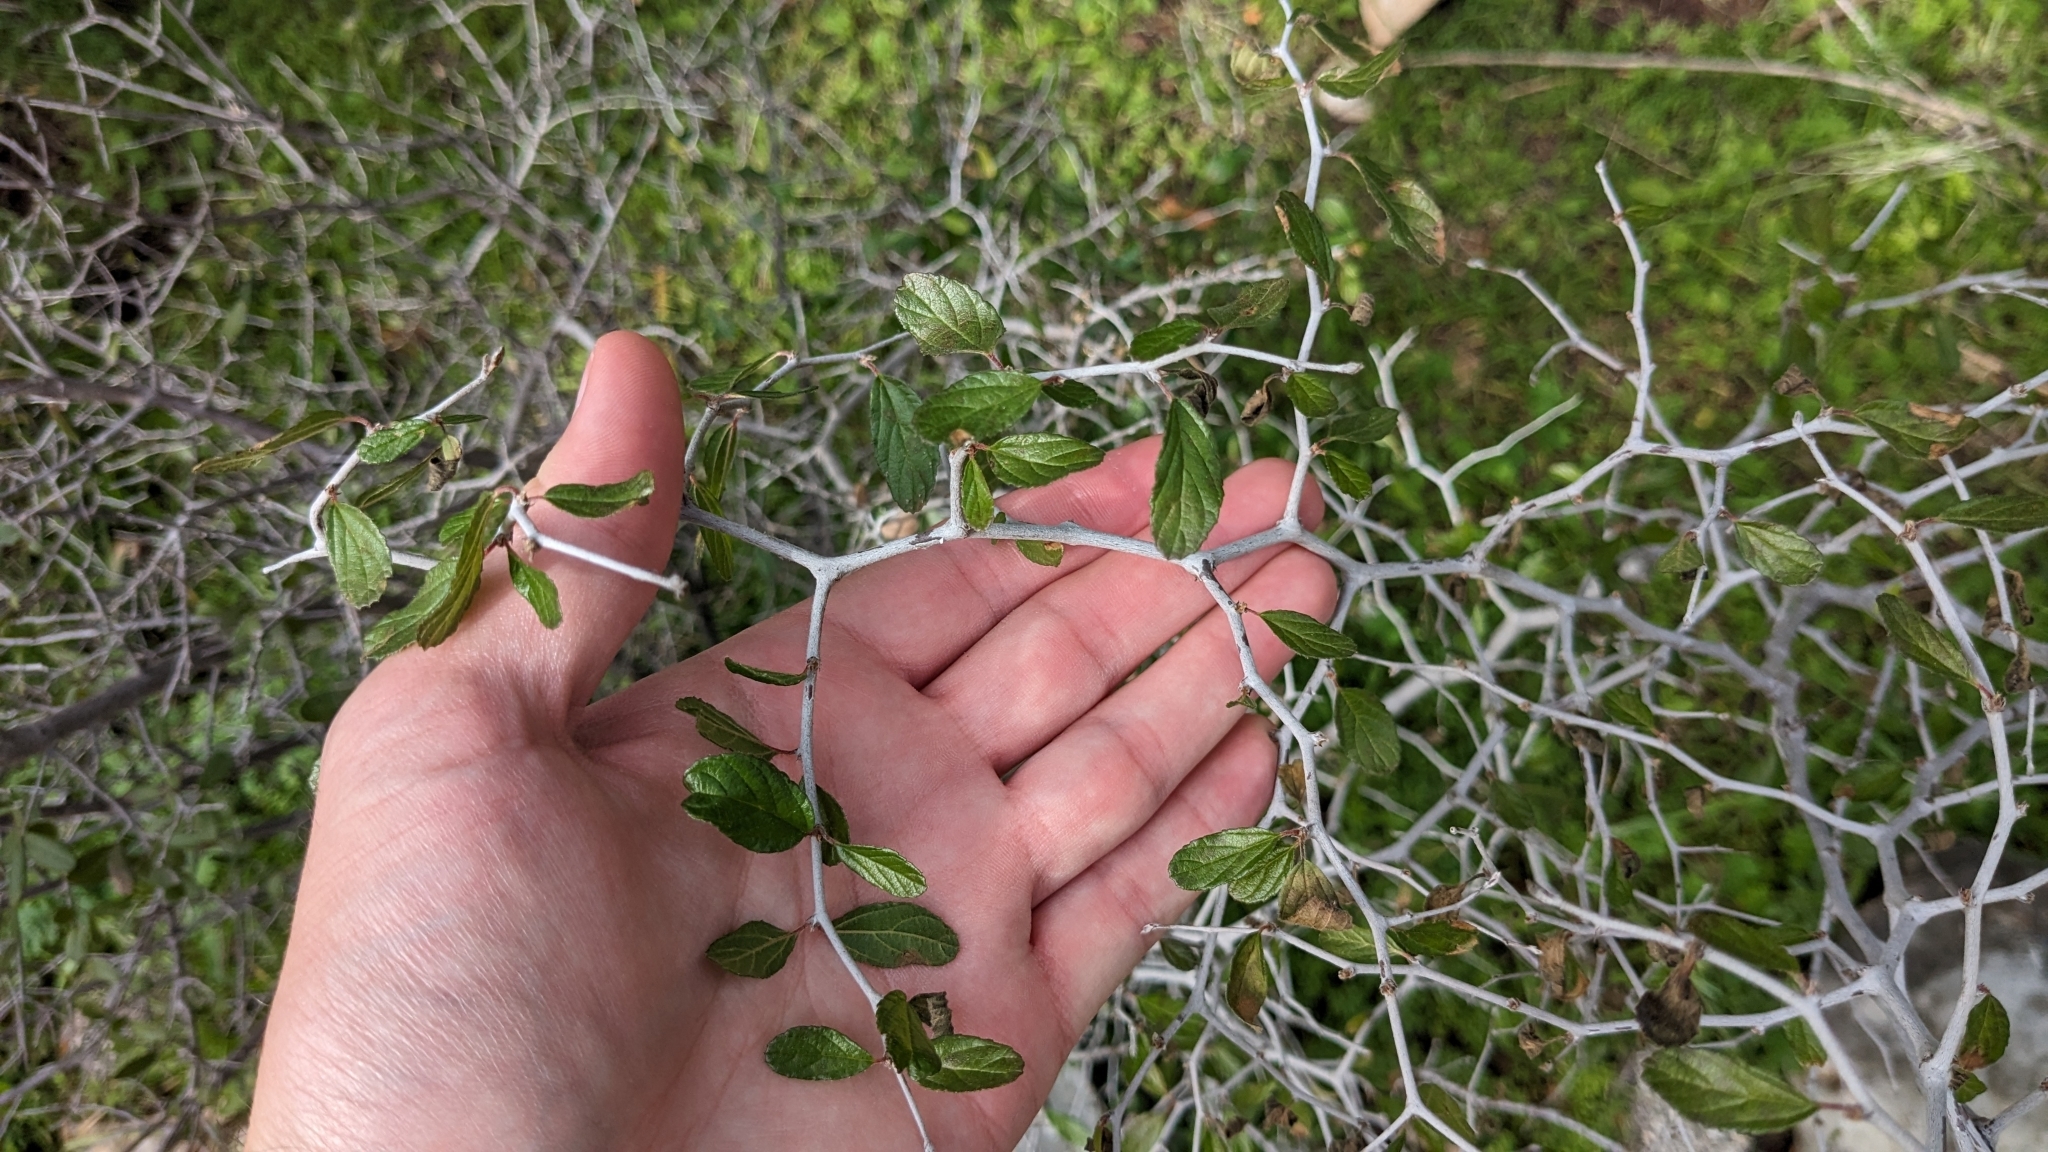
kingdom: Plantae
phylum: Tracheophyta
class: Magnoliopsida
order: Rosales
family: Rhamnaceae
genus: Colubrina
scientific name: Colubrina texensis
